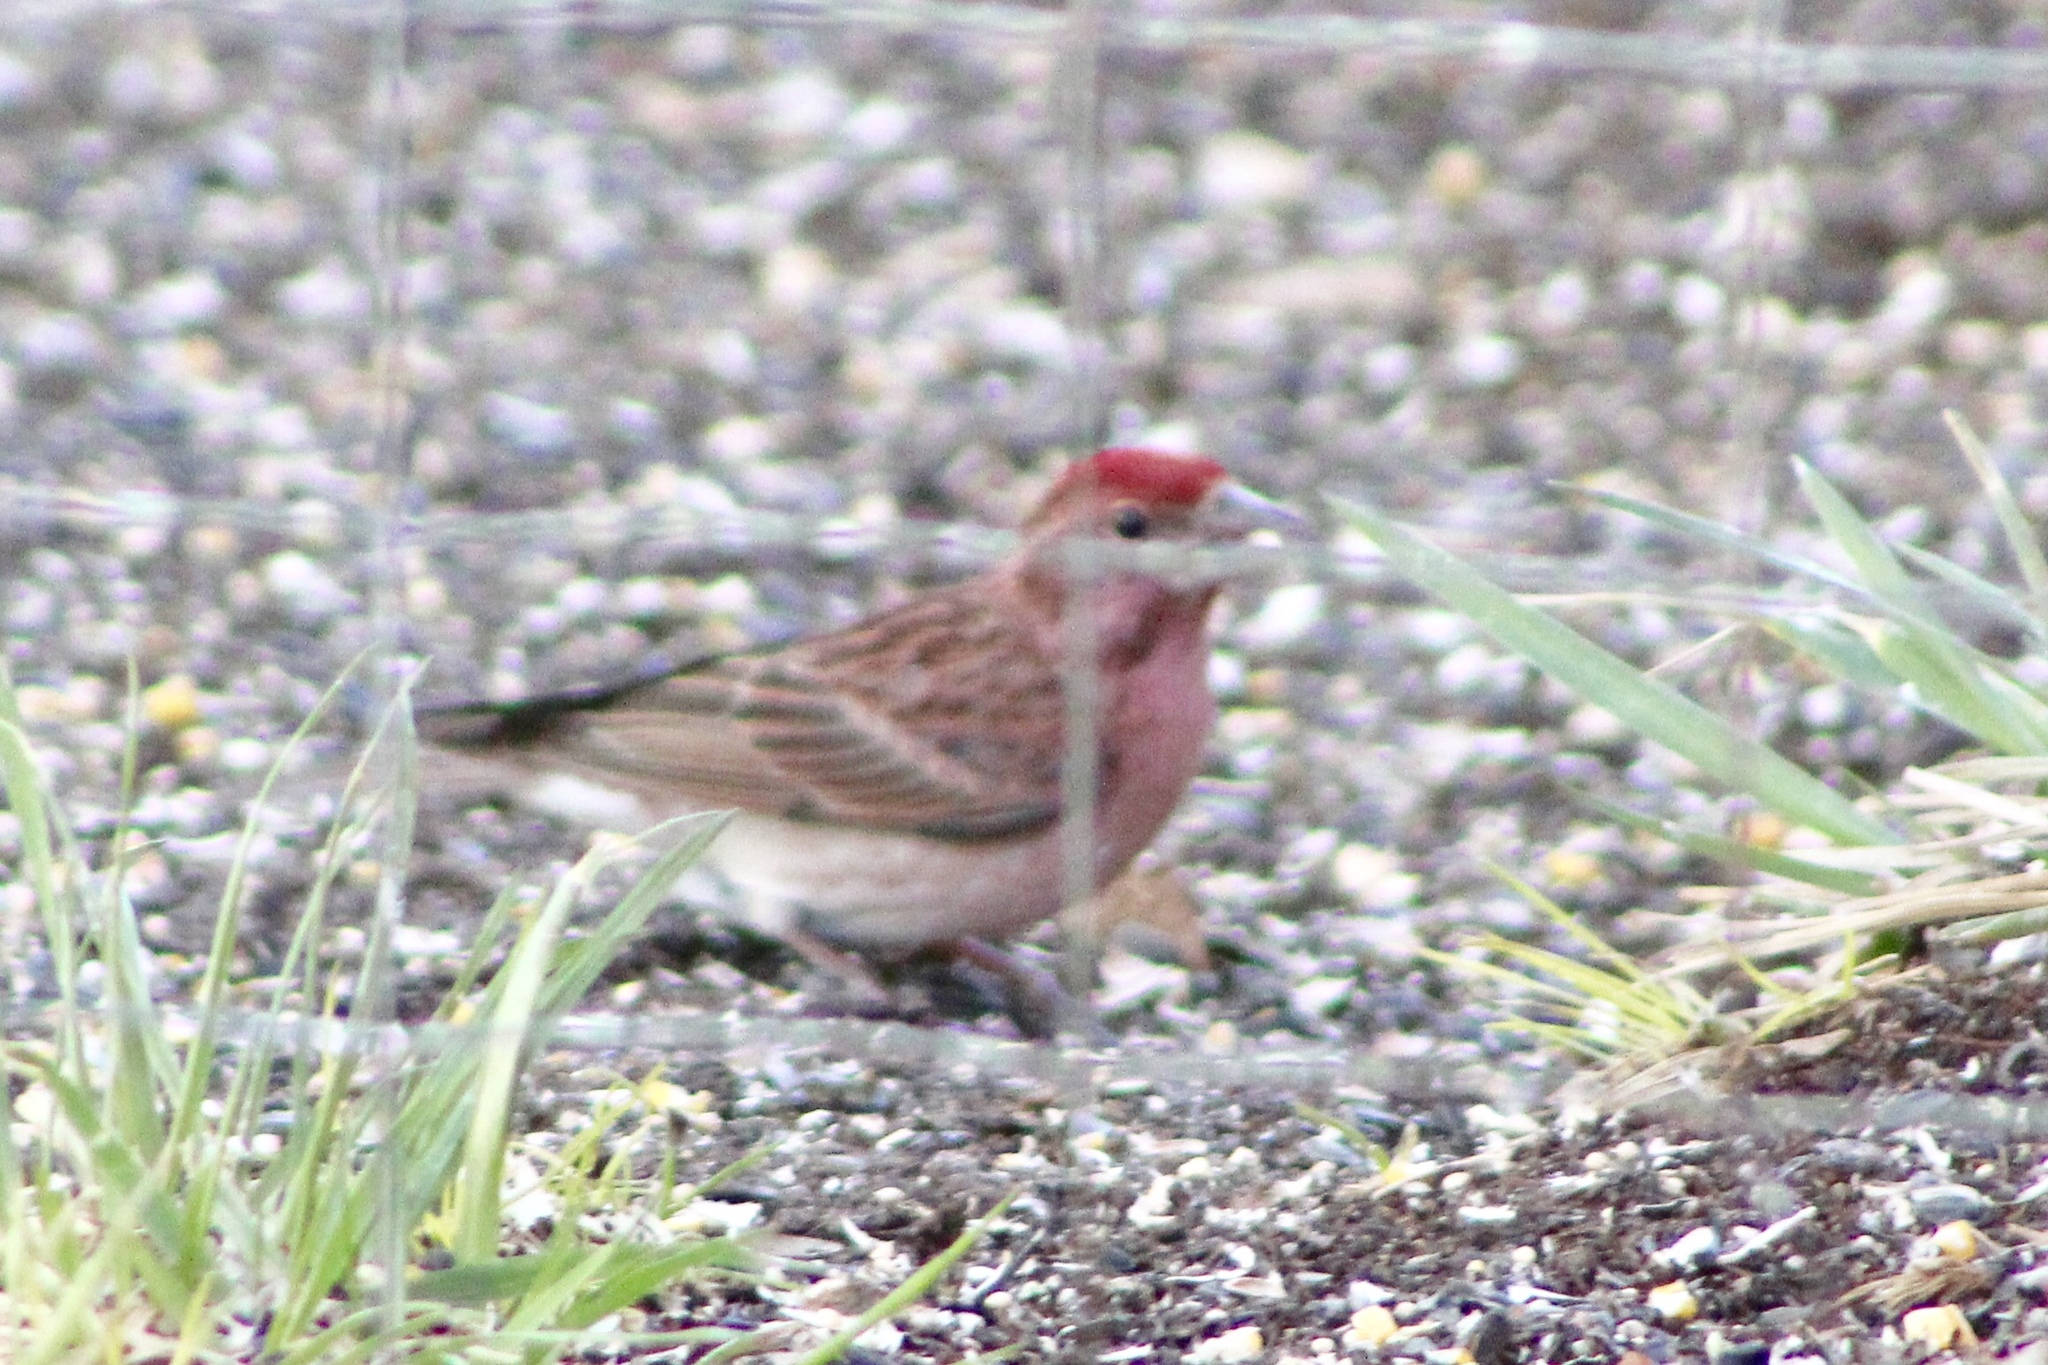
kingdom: Animalia
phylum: Chordata
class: Aves
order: Passeriformes
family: Fringillidae
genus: Haemorhous
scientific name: Haemorhous cassinii
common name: Cassin's finch
